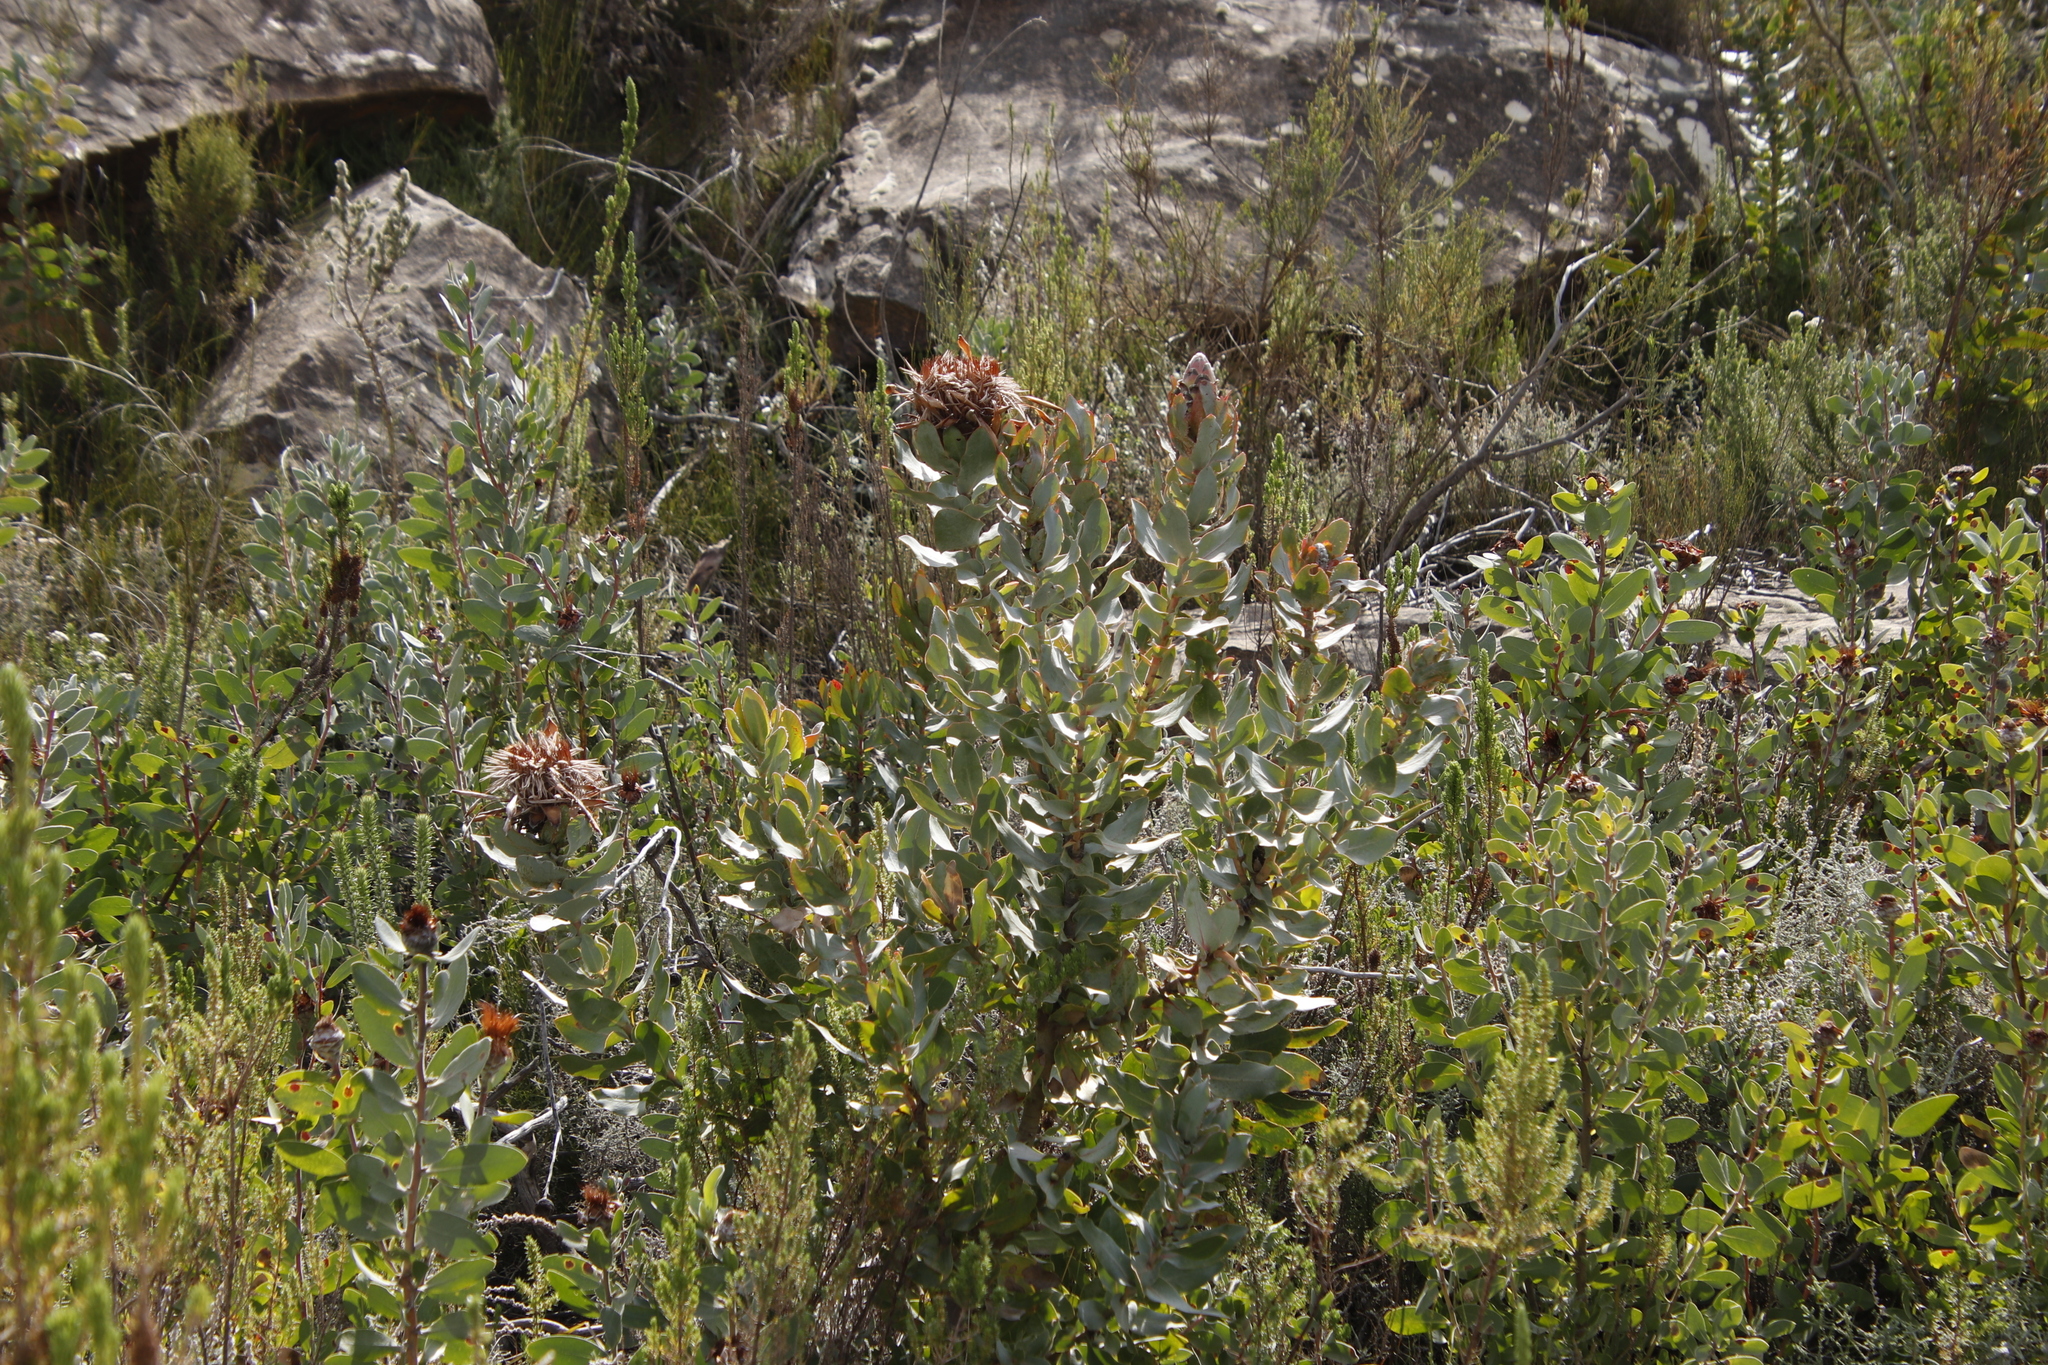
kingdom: Plantae
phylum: Tracheophyta
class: Magnoliopsida
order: Proteales
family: Proteaceae
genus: Protea
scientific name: Protea punctata
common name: Water sugarbush
